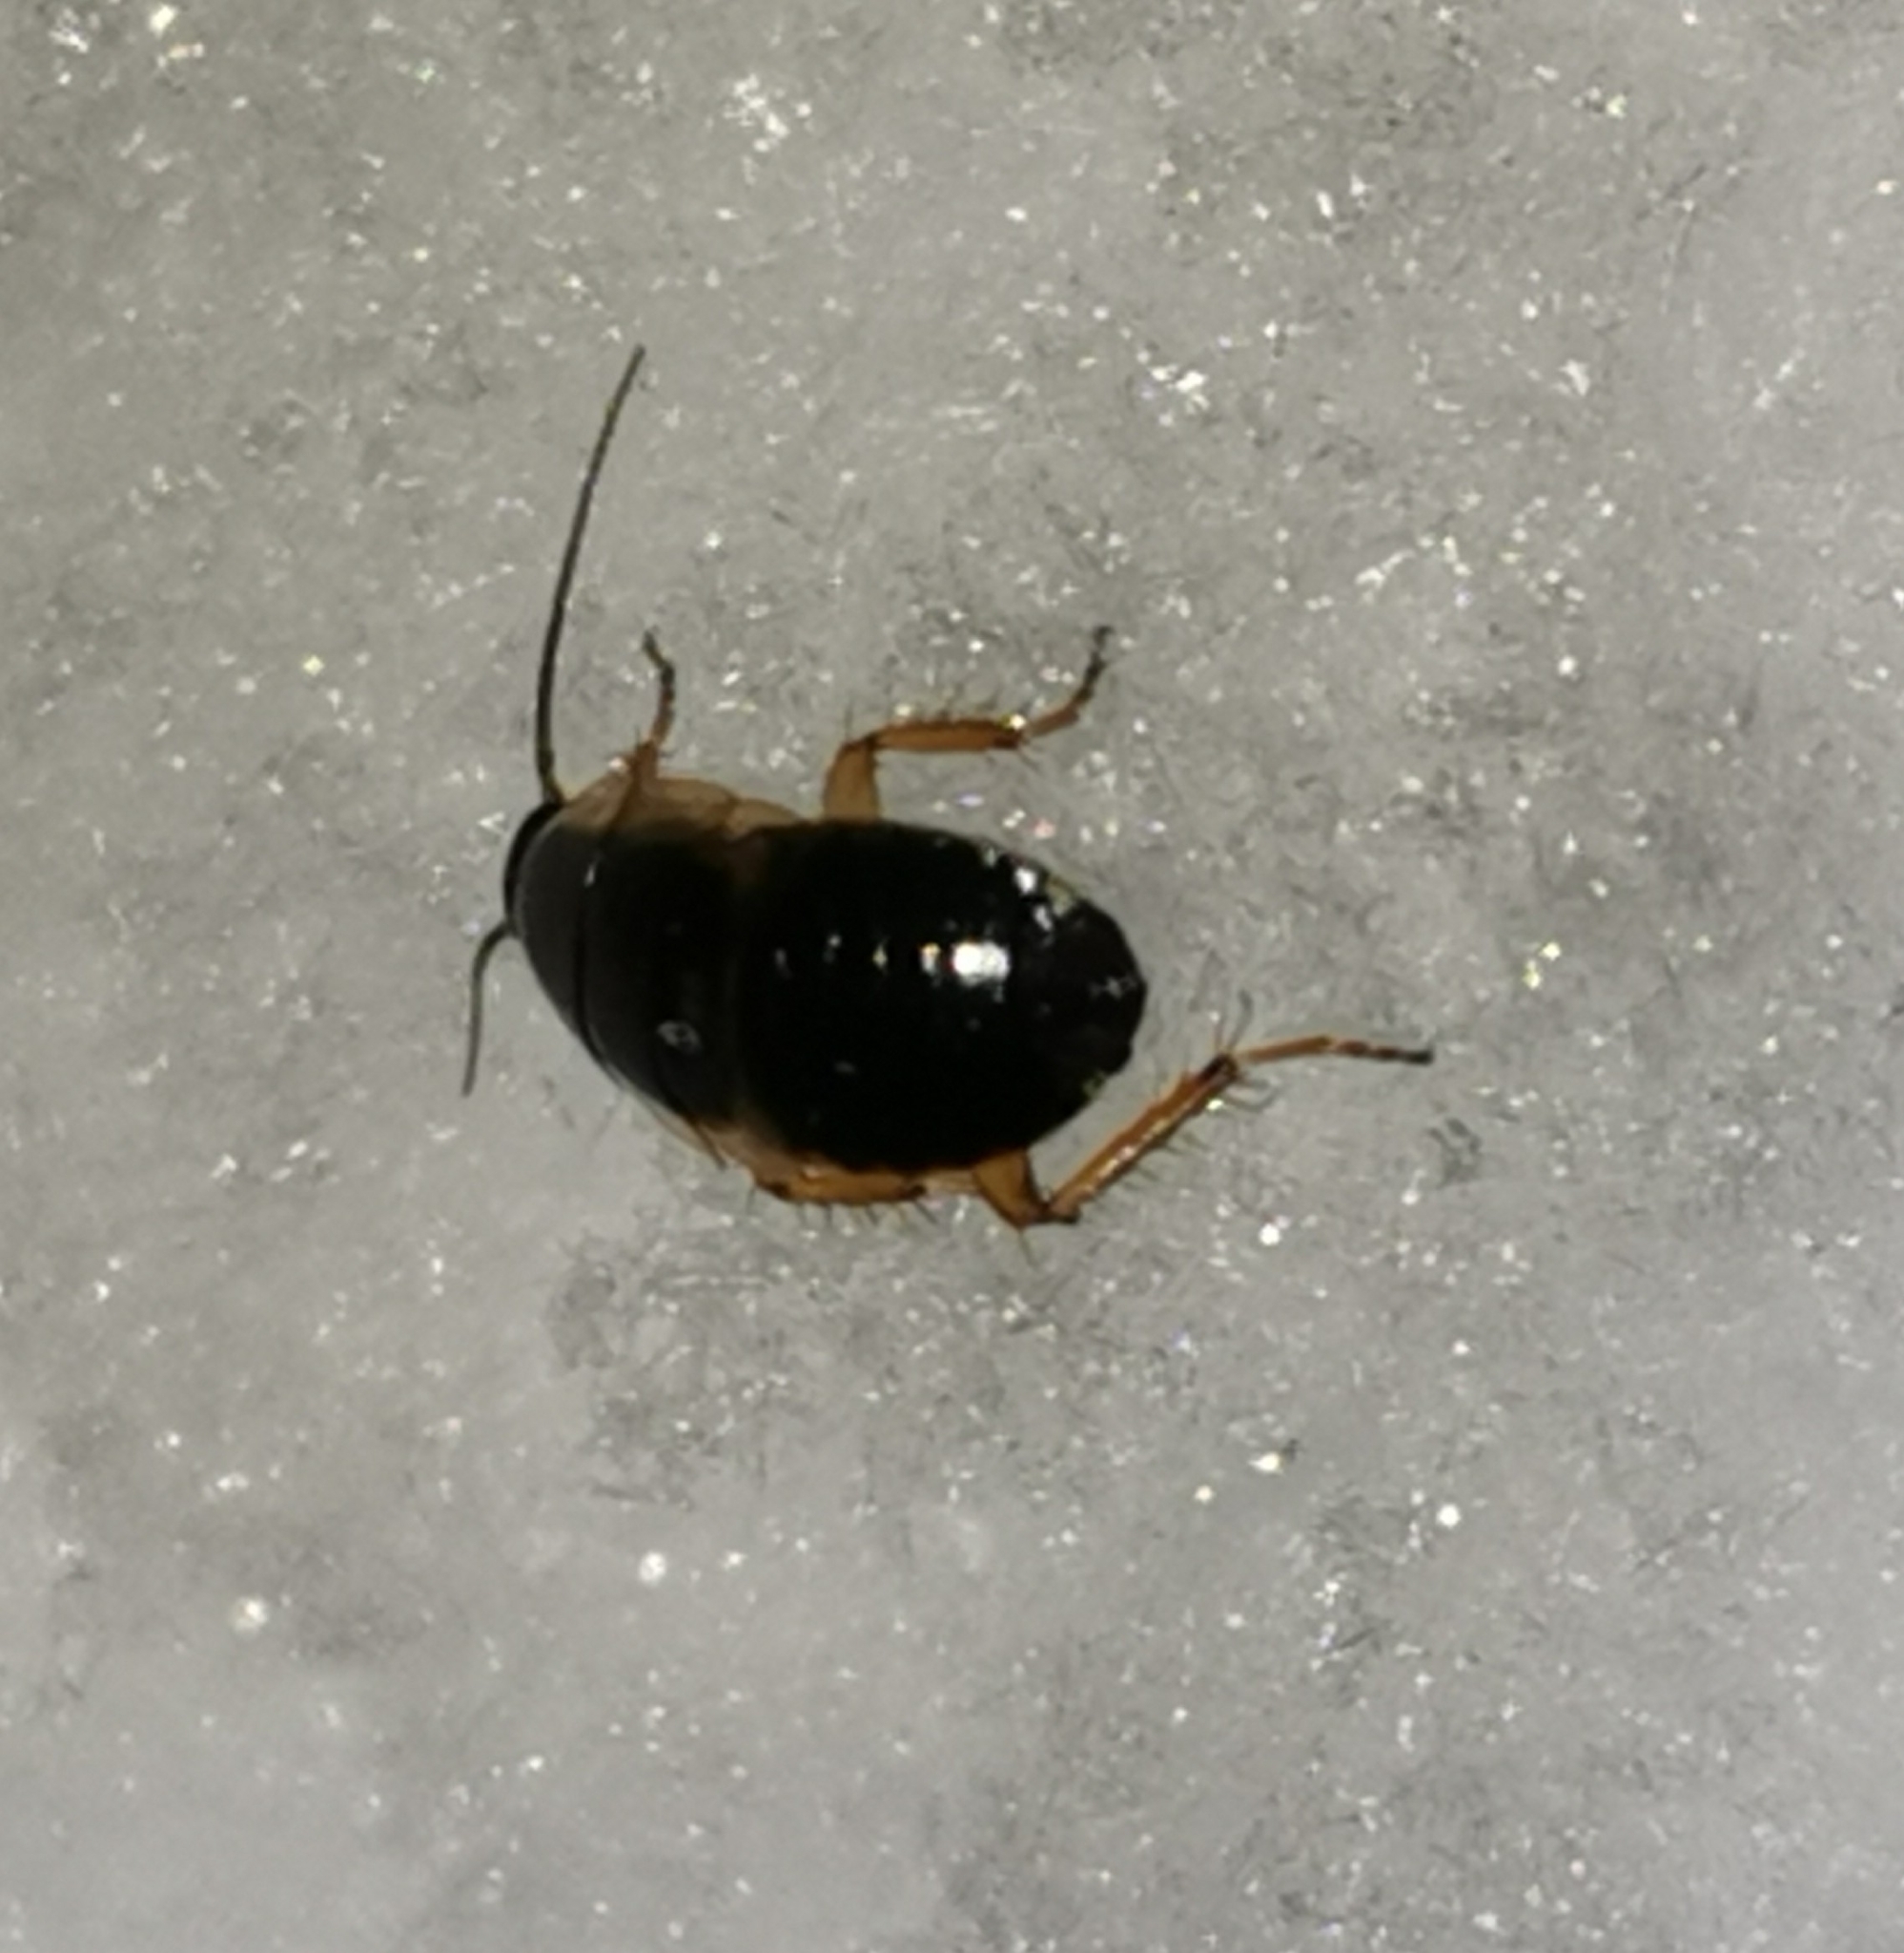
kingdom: Animalia
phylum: Arthropoda
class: Insecta
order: Blattodea
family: Ectobiidae
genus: Ectobius
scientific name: Ectobius sylvestris
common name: Forest cockroach
